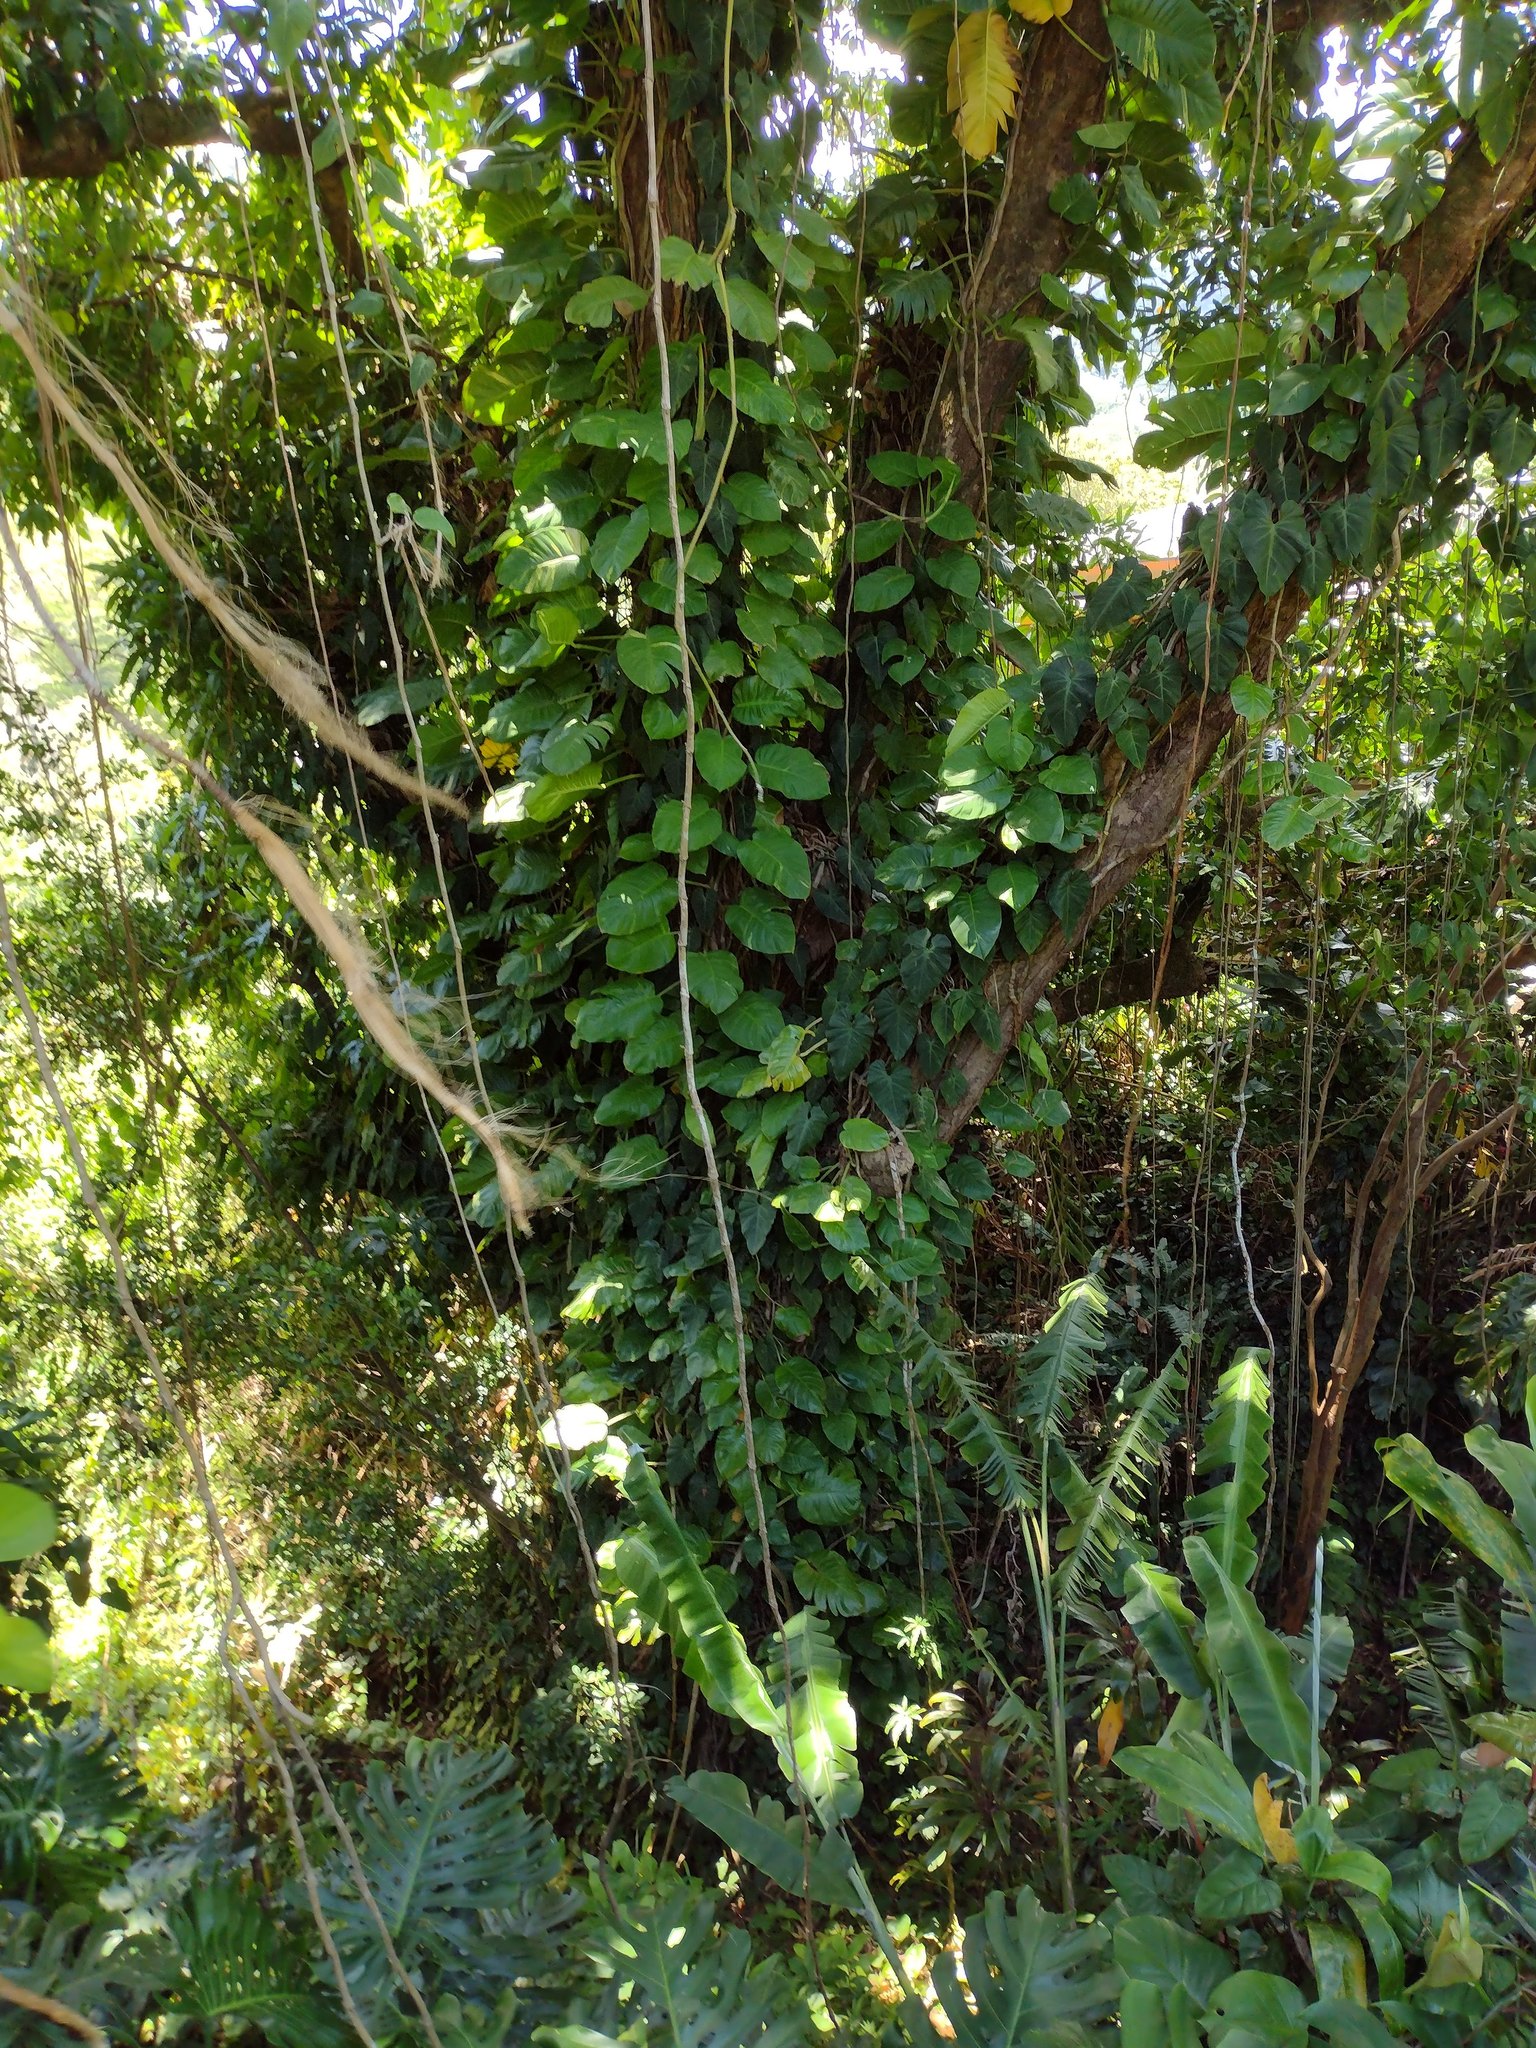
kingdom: Plantae
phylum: Tracheophyta
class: Liliopsida
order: Alismatales
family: Araceae
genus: Philodendron
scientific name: Philodendron hederaceum
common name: Vilevine
